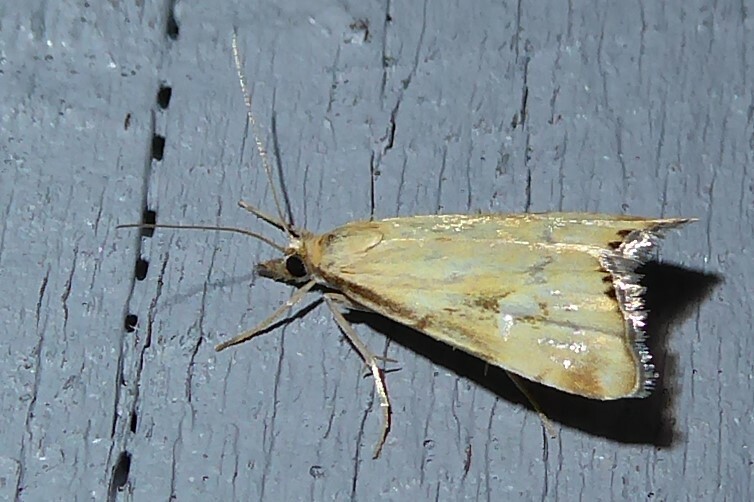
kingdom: Animalia
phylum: Arthropoda
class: Insecta
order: Lepidoptera
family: Crambidae
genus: Glaucocharis
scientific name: Glaucocharis lepidella
